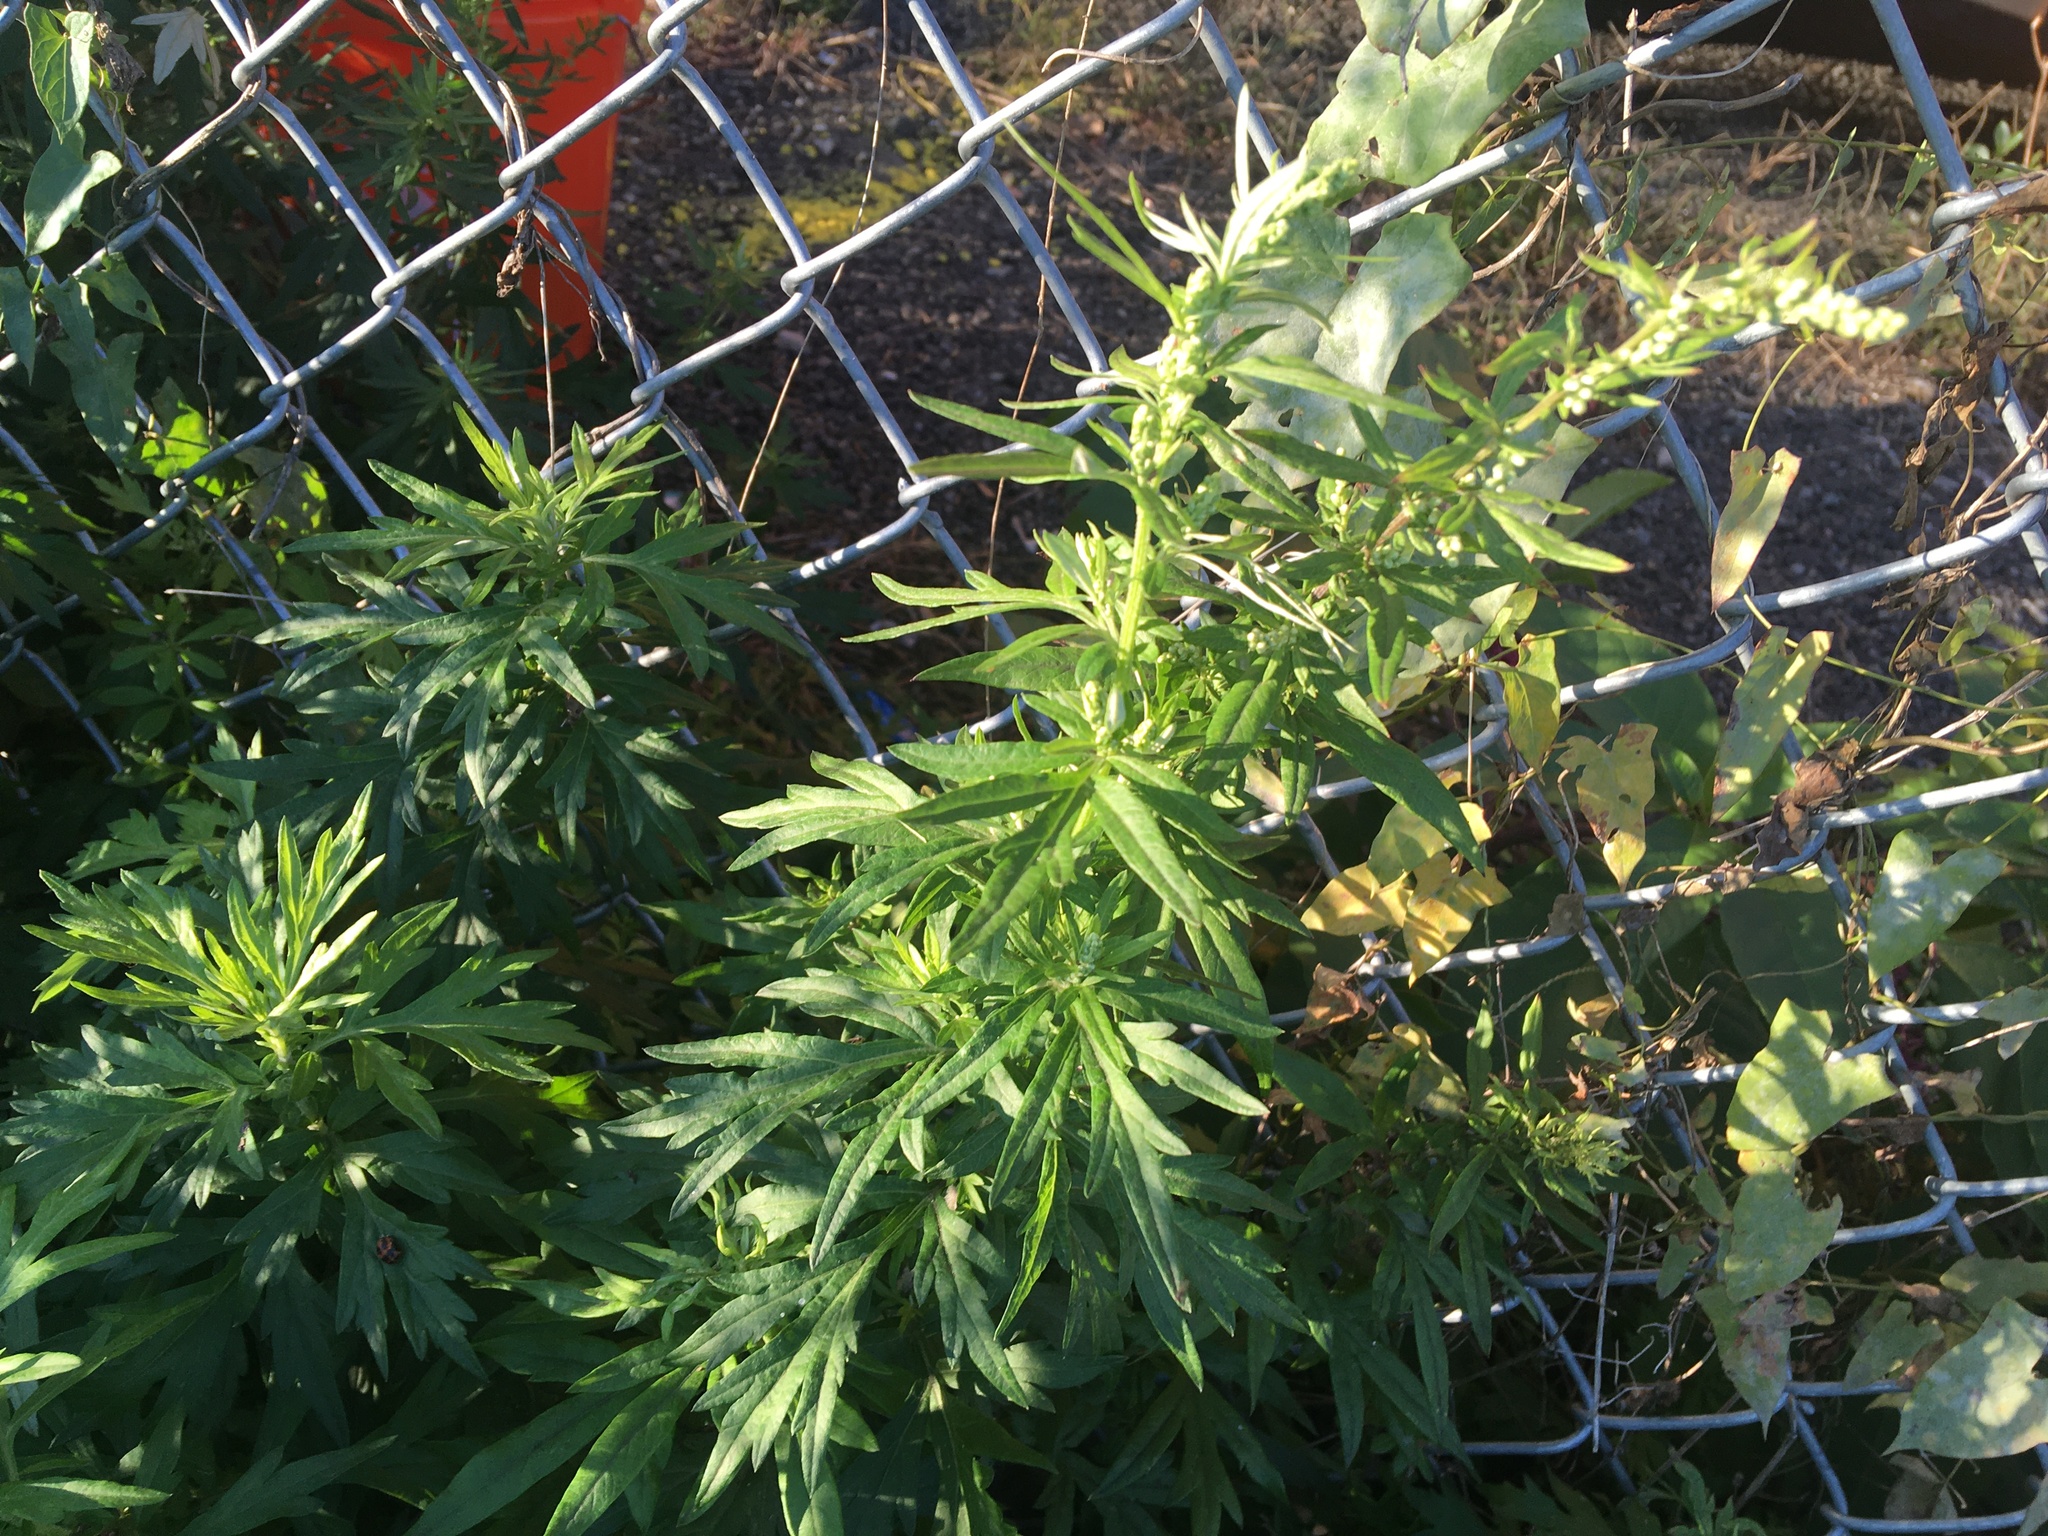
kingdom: Plantae
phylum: Tracheophyta
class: Magnoliopsida
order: Asterales
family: Asteraceae
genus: Artemisia
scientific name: Artemisia vulgaris
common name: Mugwort
